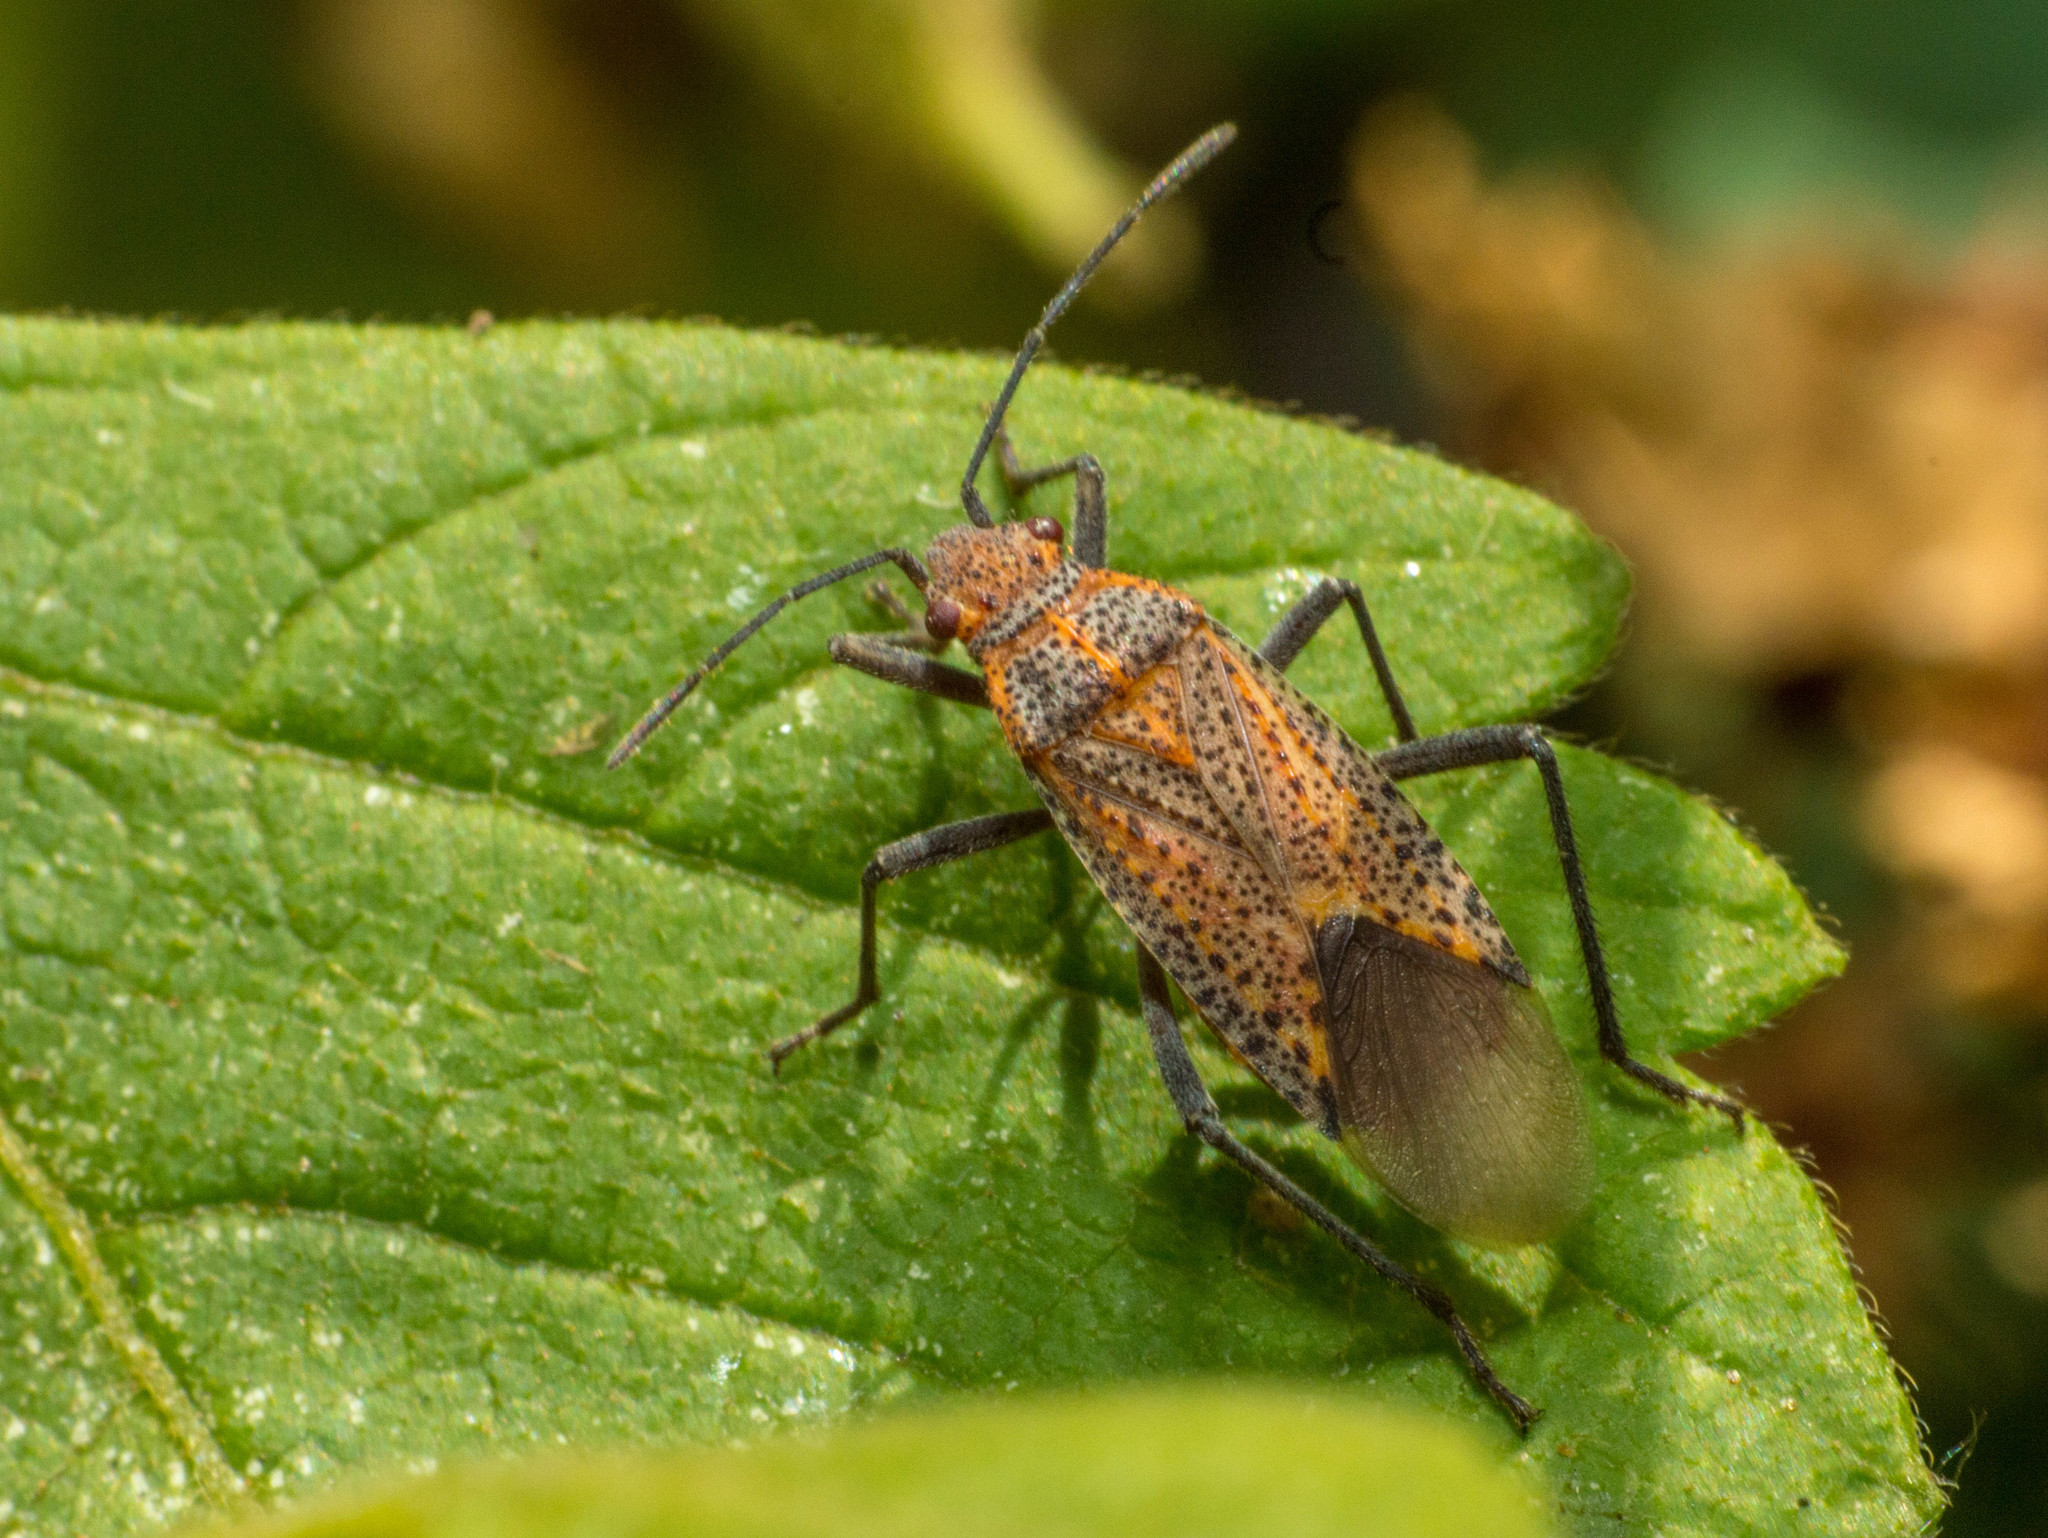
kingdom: Animalia
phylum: Arthropoda
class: Insecta
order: Hemiptera
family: Rhopalidae
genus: Jadera
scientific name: Jadera choprai
